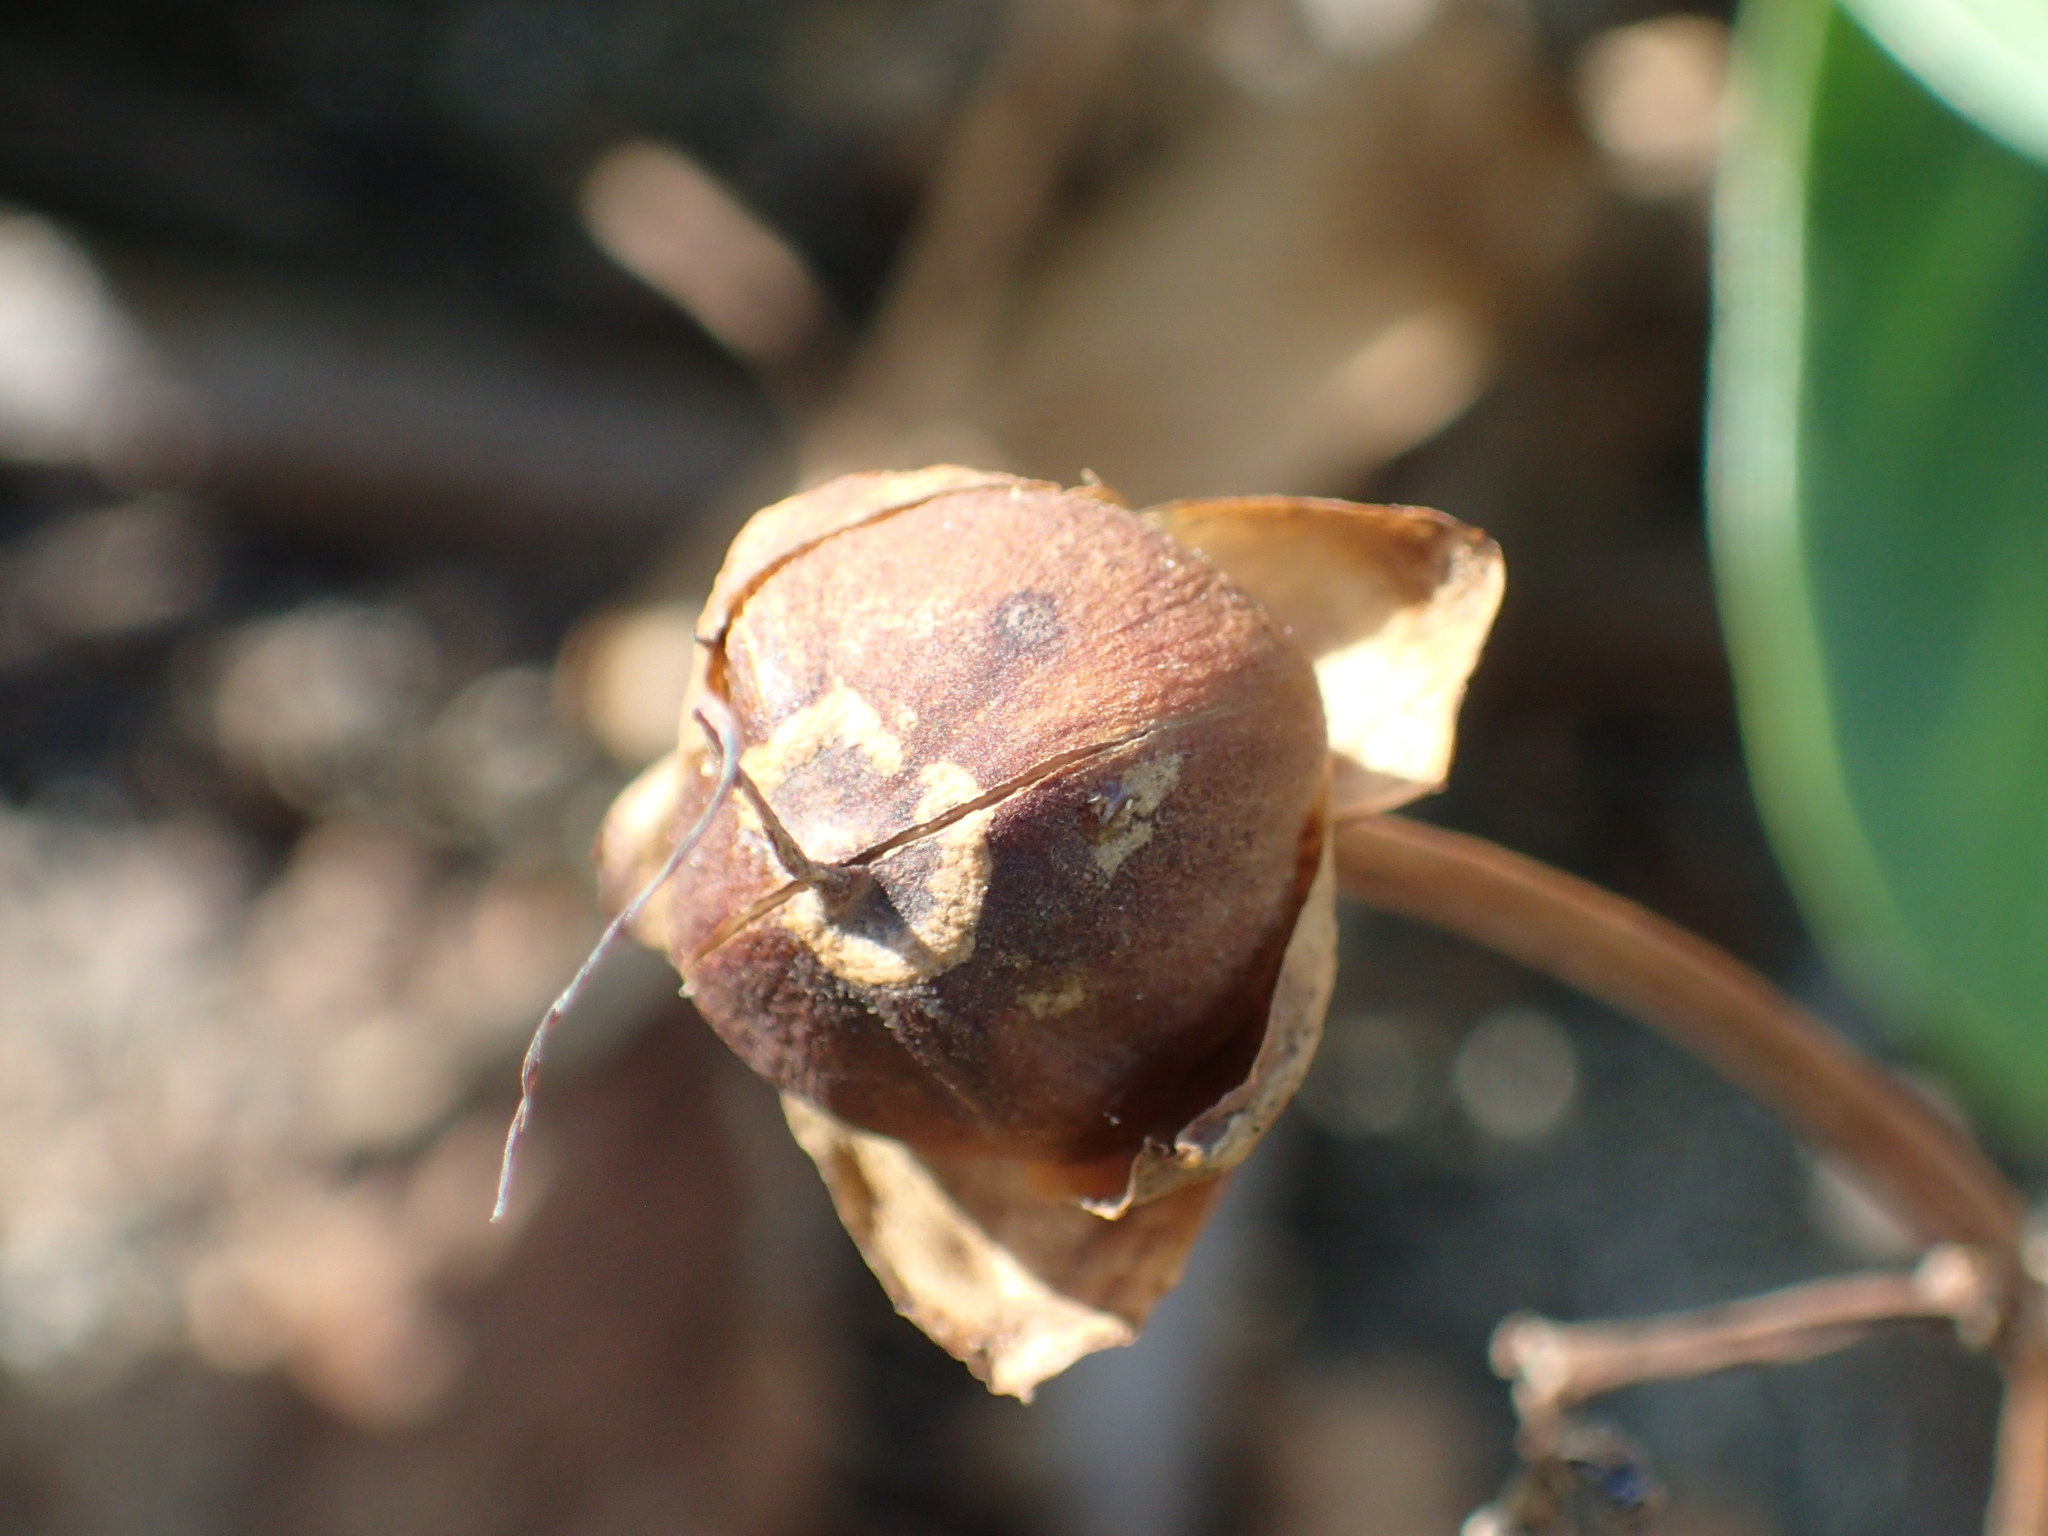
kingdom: Plantae
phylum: Tracheophyta
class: Magnoliopsida
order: Solanales
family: Convolvulaceae
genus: Ipomoea
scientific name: Ipomoea pes-caprae
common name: Beach morning glory
